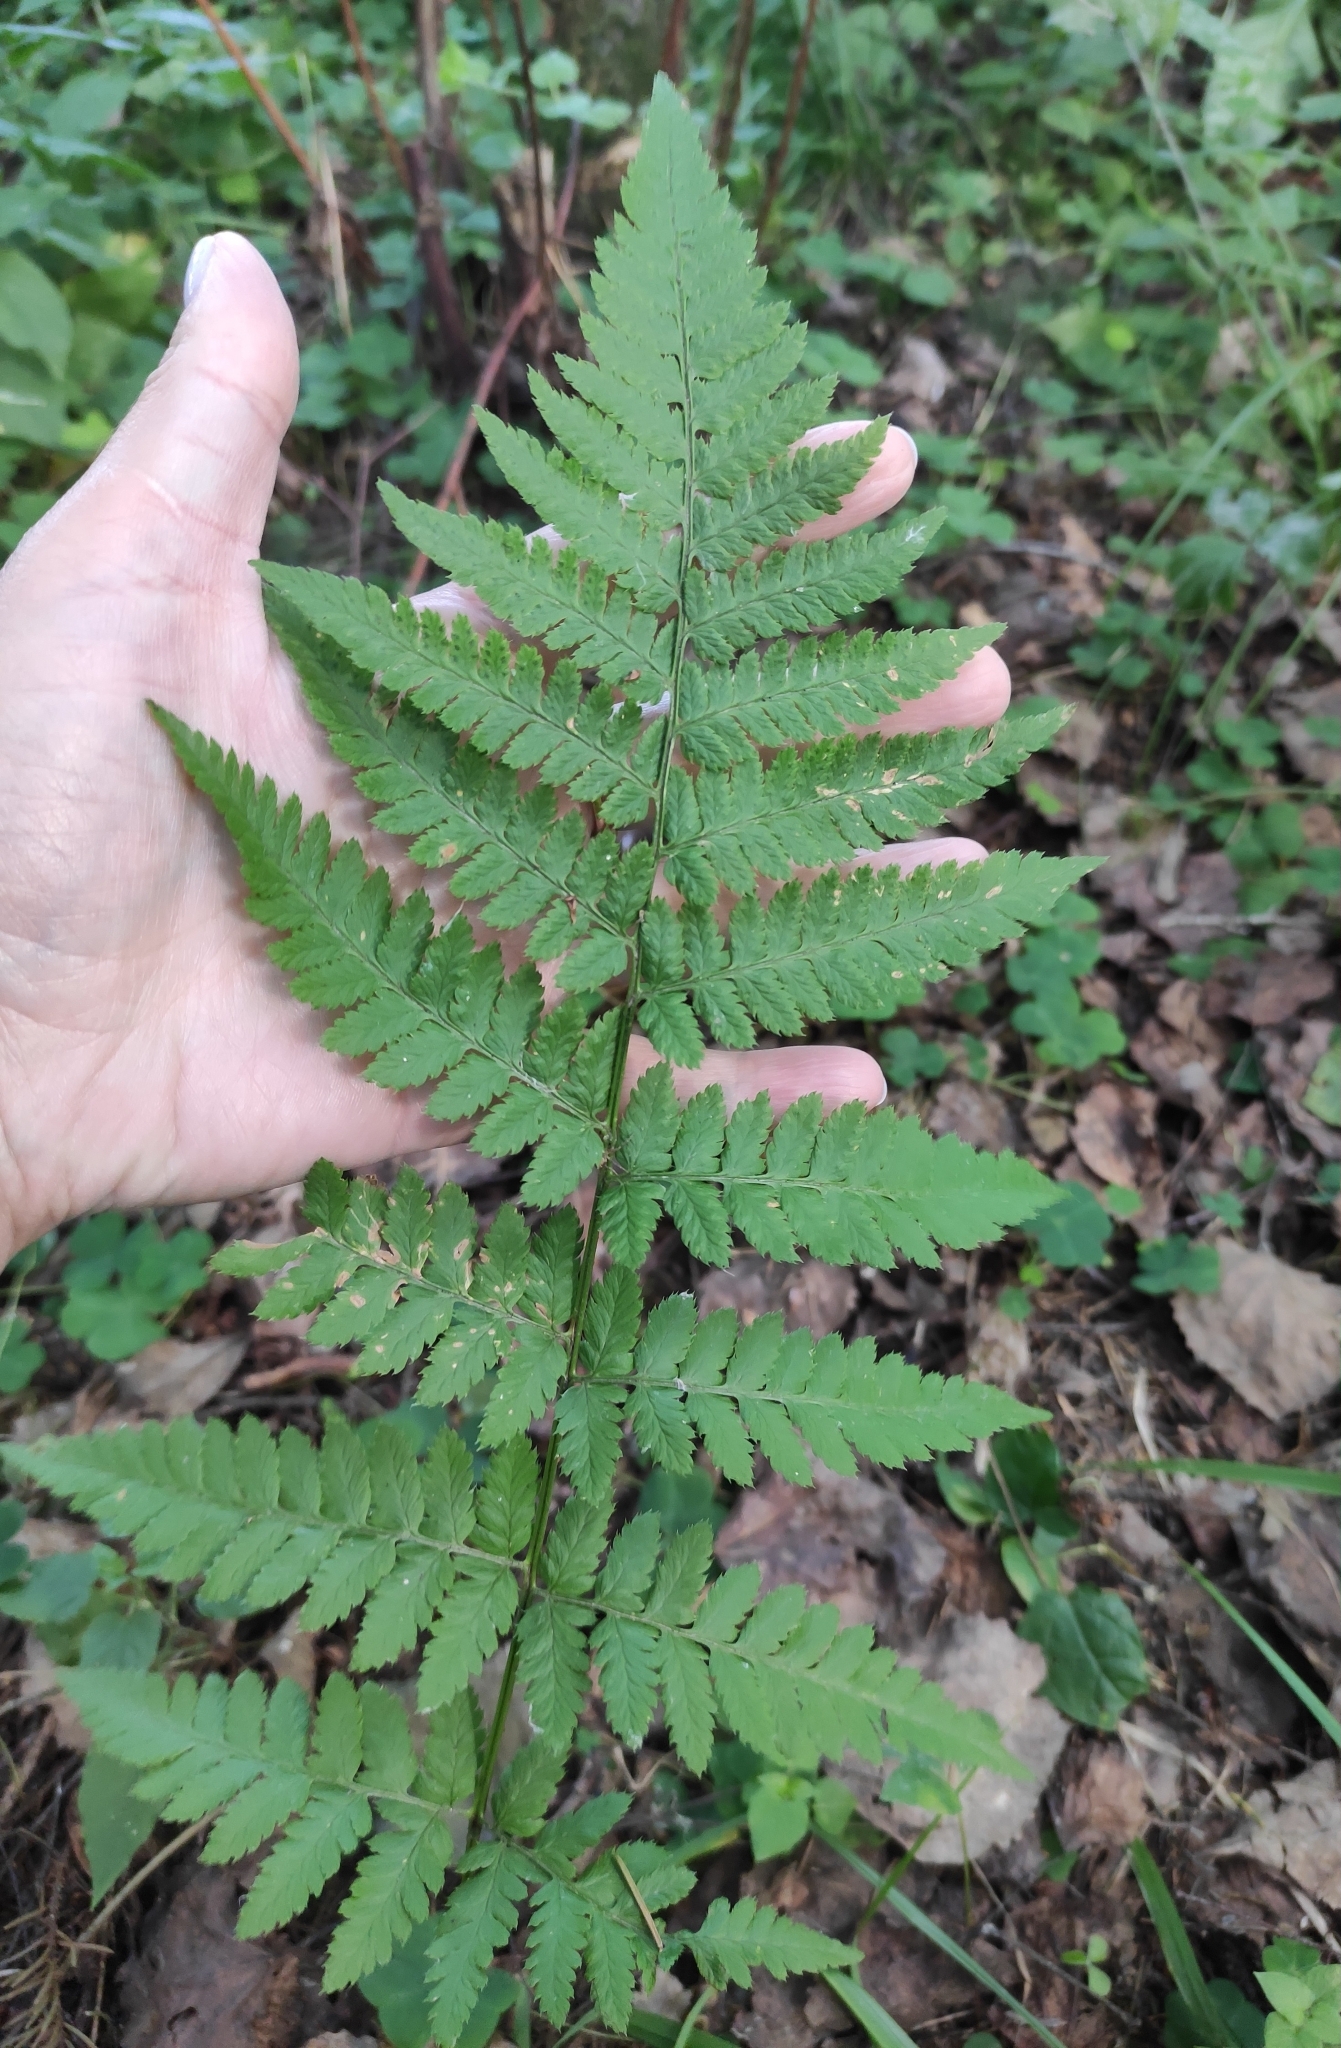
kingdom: Plantae
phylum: Tracheophyta
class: Polypodiopsida
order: Polypodiales
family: Dryopteridaceae
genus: Dryopteris
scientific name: Dryopteris carthusiana
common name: Narrow buckler-fern
